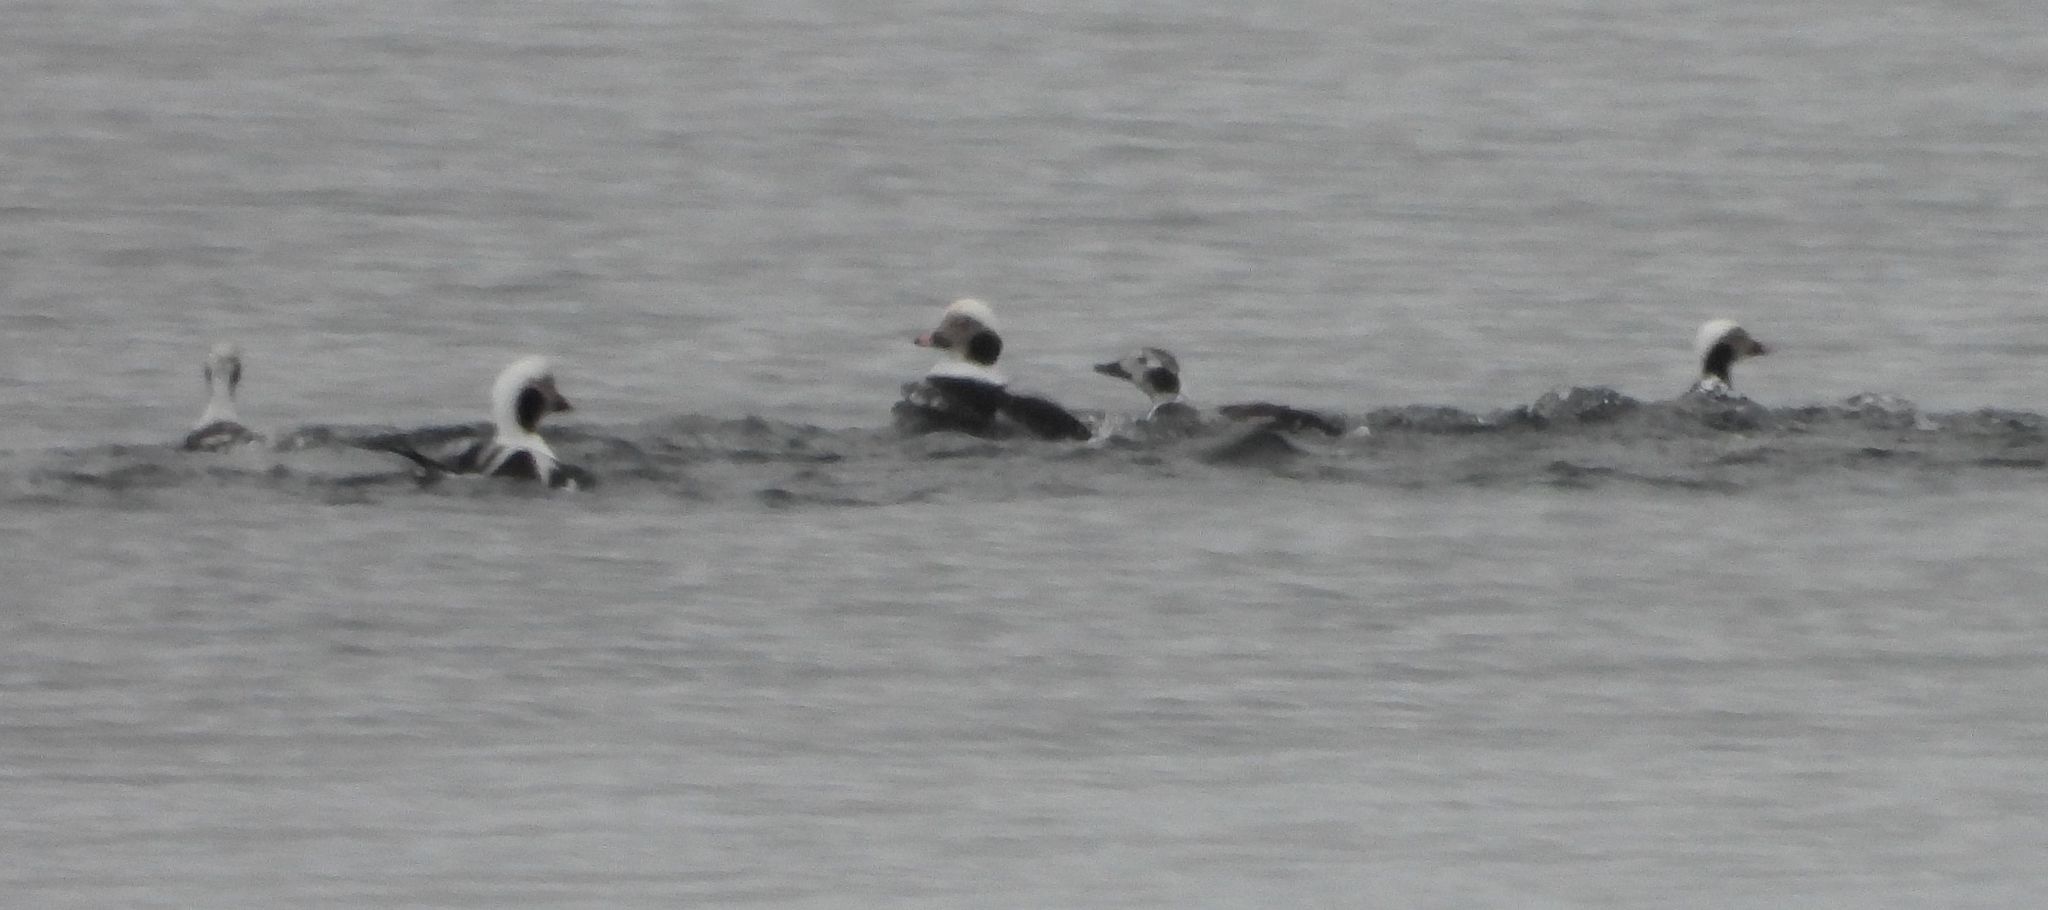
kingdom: Animalia
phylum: Chordata
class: Aves
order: Anseriformes
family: Anatidae
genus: Clangula
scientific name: Clangula hyemalis
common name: Long-tailed duck
